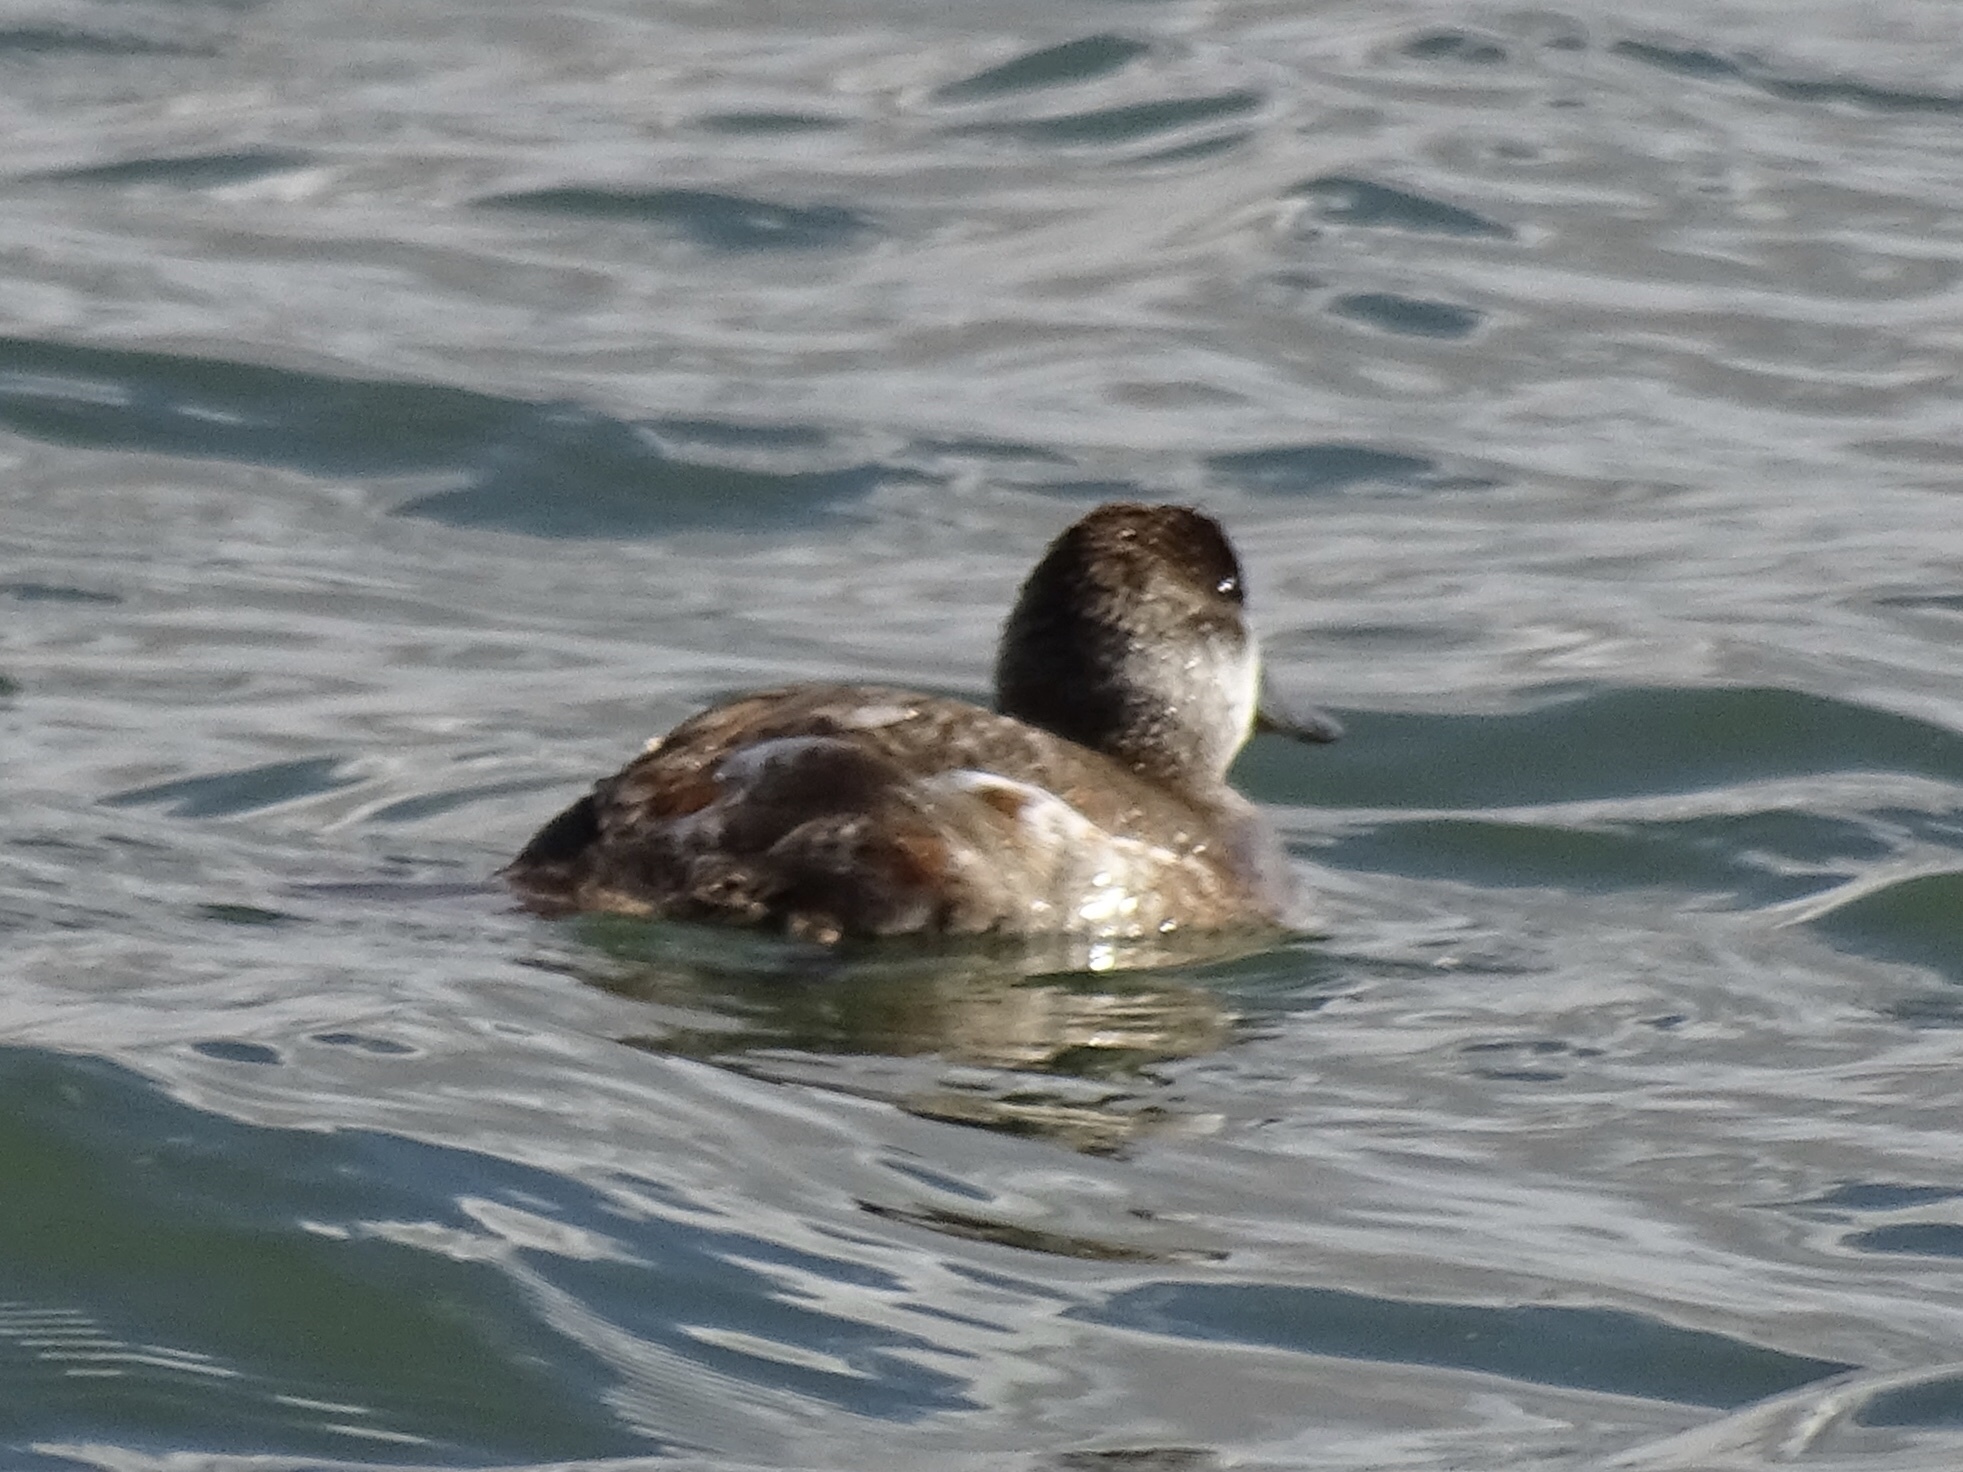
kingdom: Animalia
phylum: Chordata
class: Aves
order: Anseriformes
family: Anatidae
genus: Oxyura
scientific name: Oxyura jamaicensis
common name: Ruddy duck
